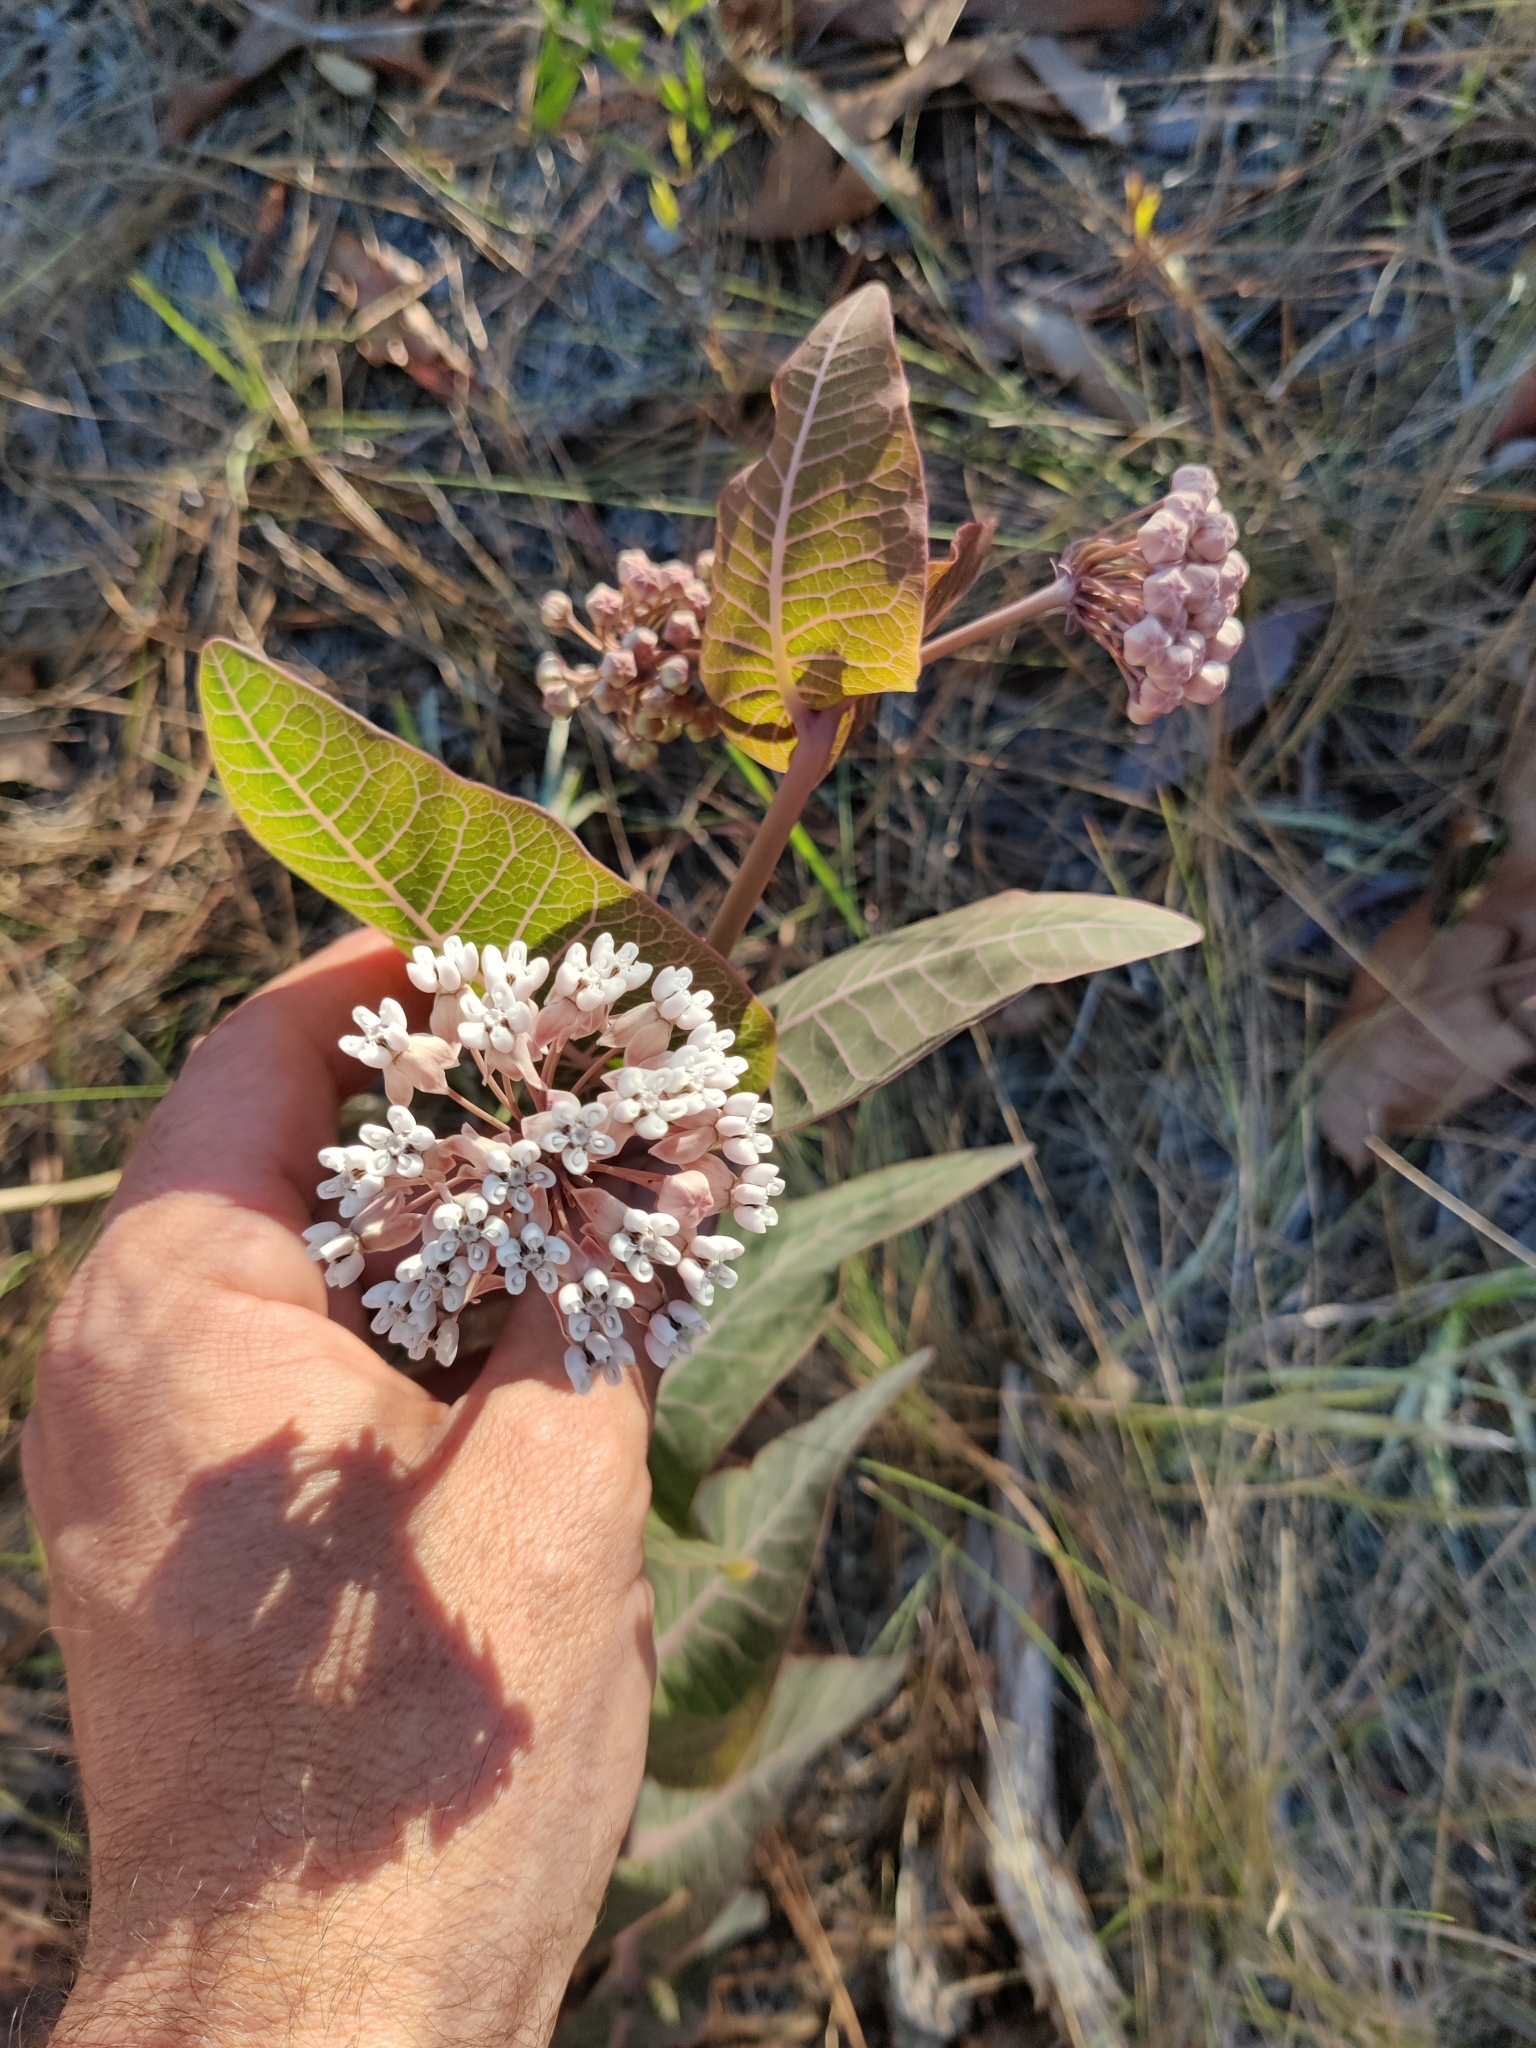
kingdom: Plantae
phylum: Tracheophyta
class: Magnoliopsida
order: Gentianales
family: Apocynaceae
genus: Asclepias
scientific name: Asclepias humistrata
